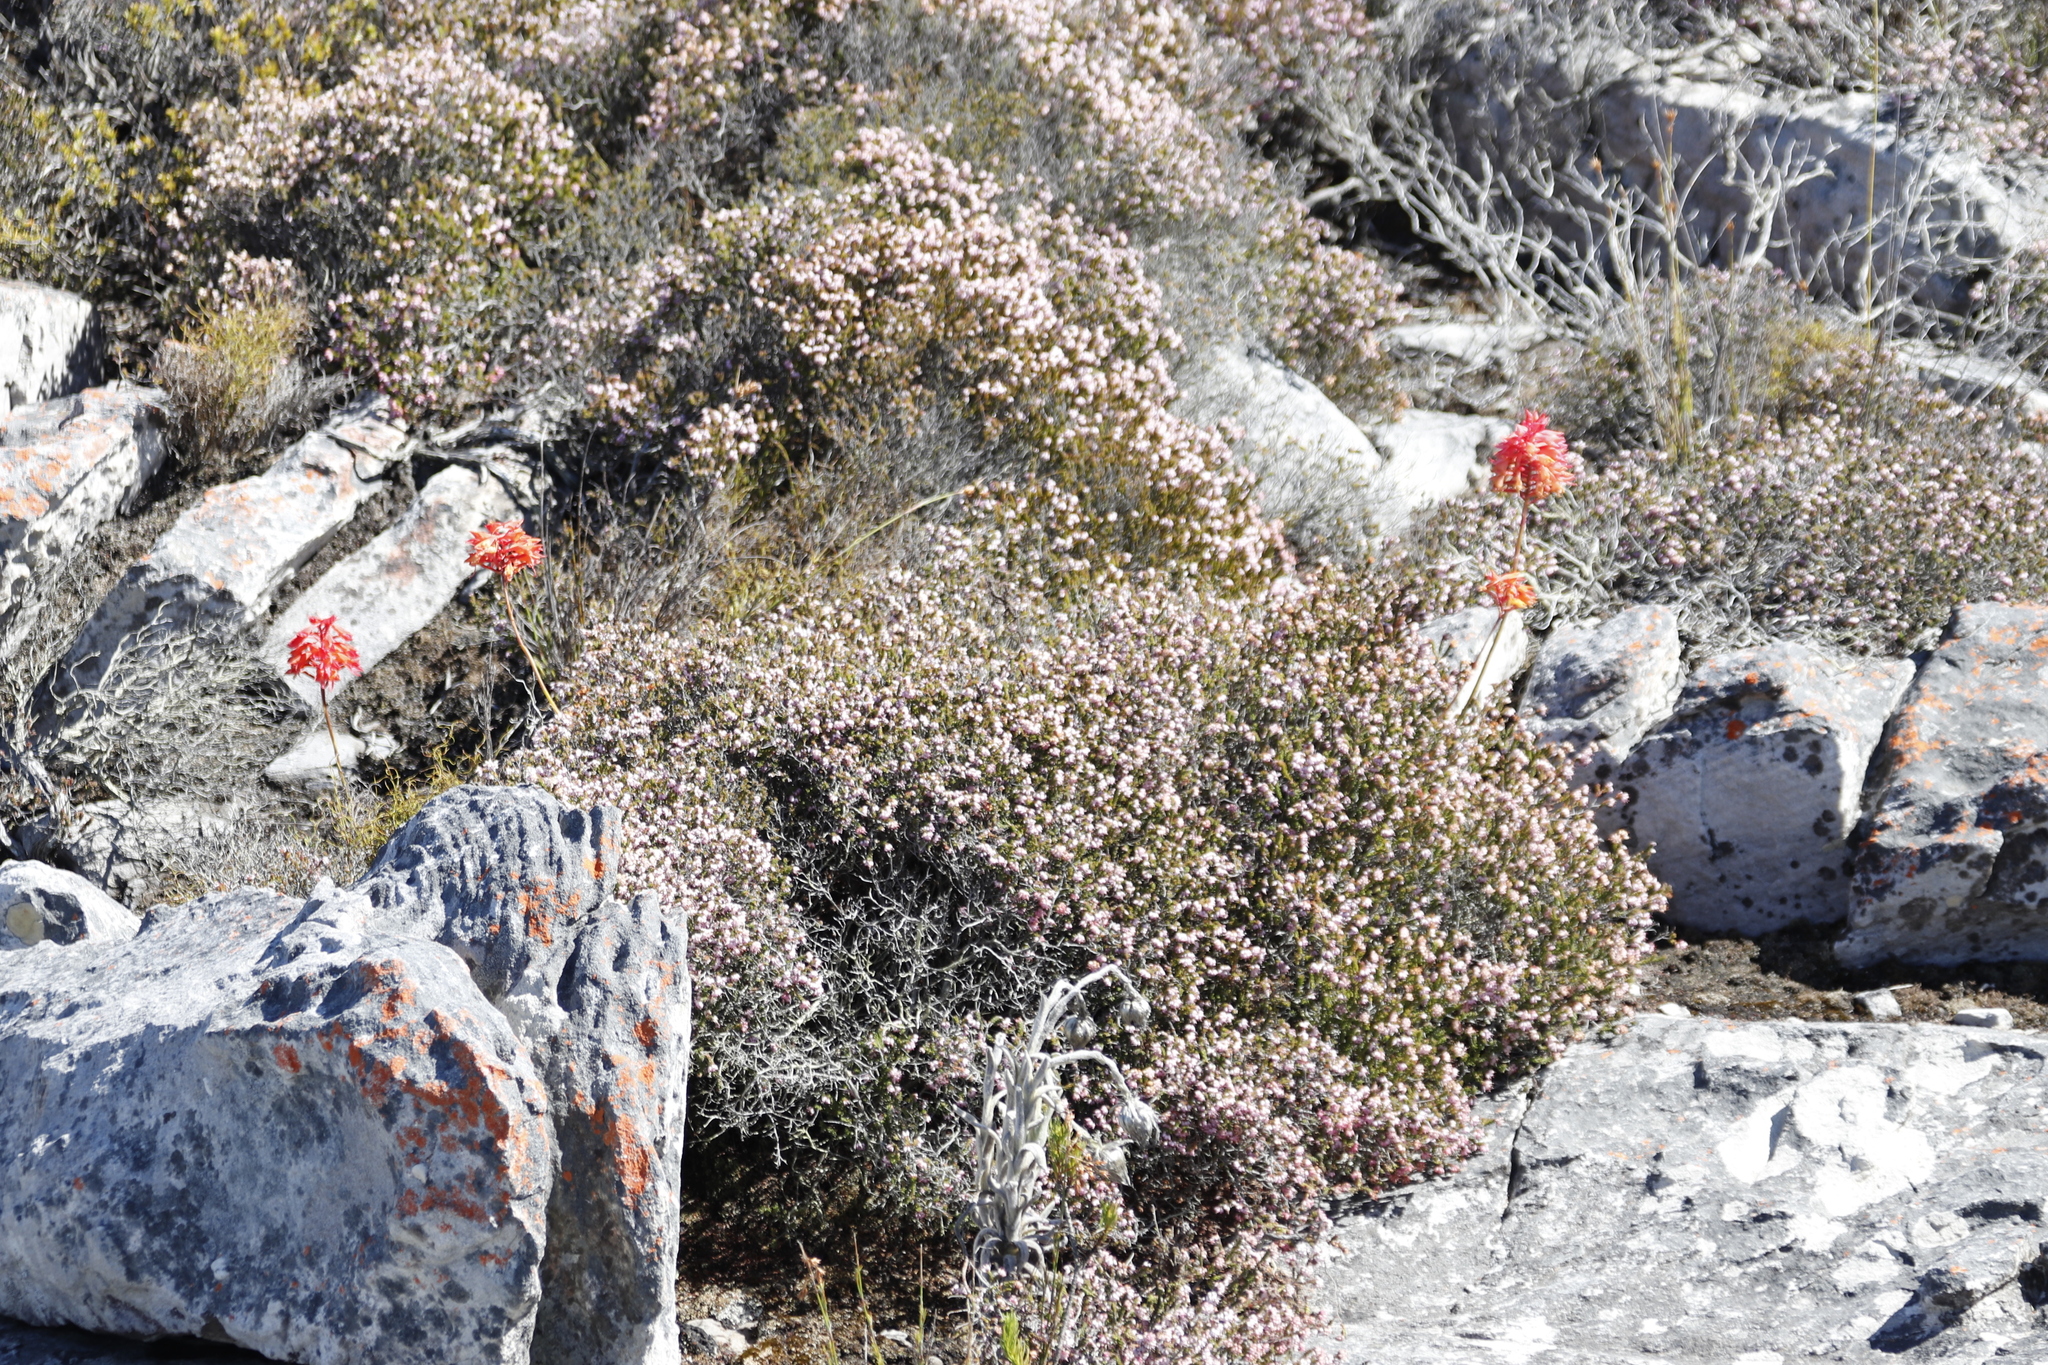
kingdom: Plantae
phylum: Tracheophyta
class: Liliopsida
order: Asparagales
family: Orchidaceae
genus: Disa
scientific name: Disa ferruginea
